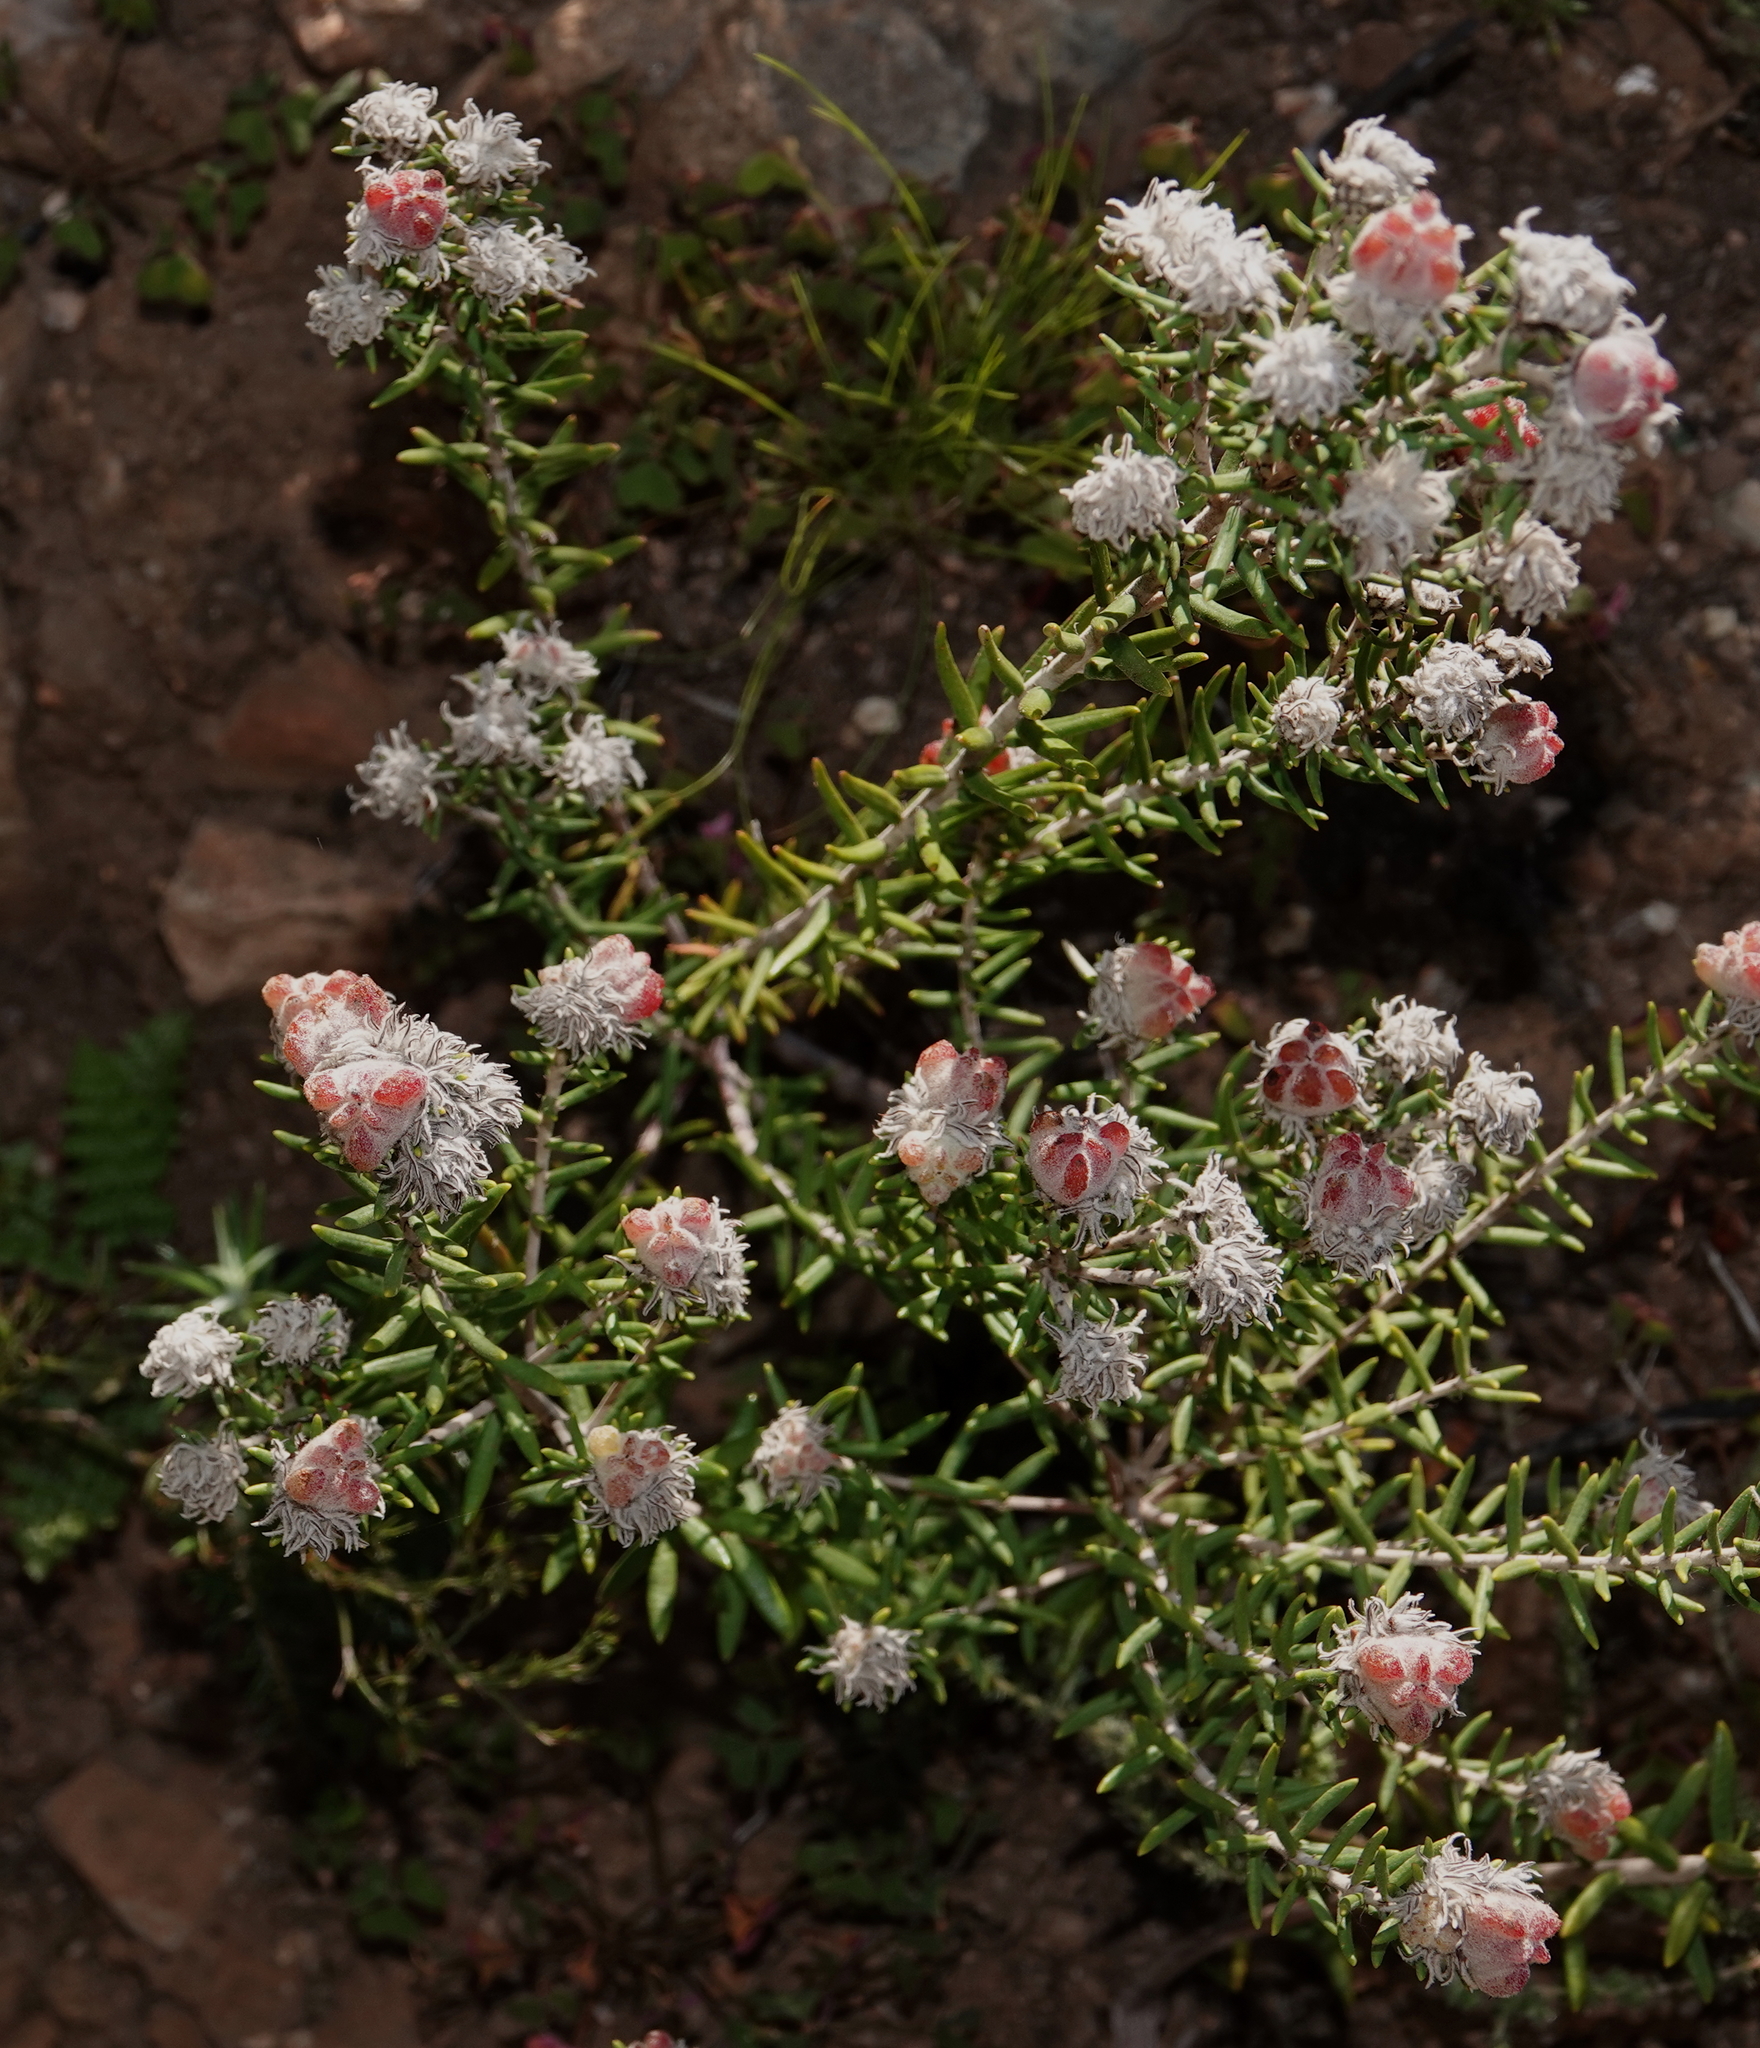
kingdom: Plantae
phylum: Tracheophyta
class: Magnoliopsida
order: Rosales
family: Rhamnaceae
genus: Trichocephalus
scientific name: Trichocephalus stipularis
